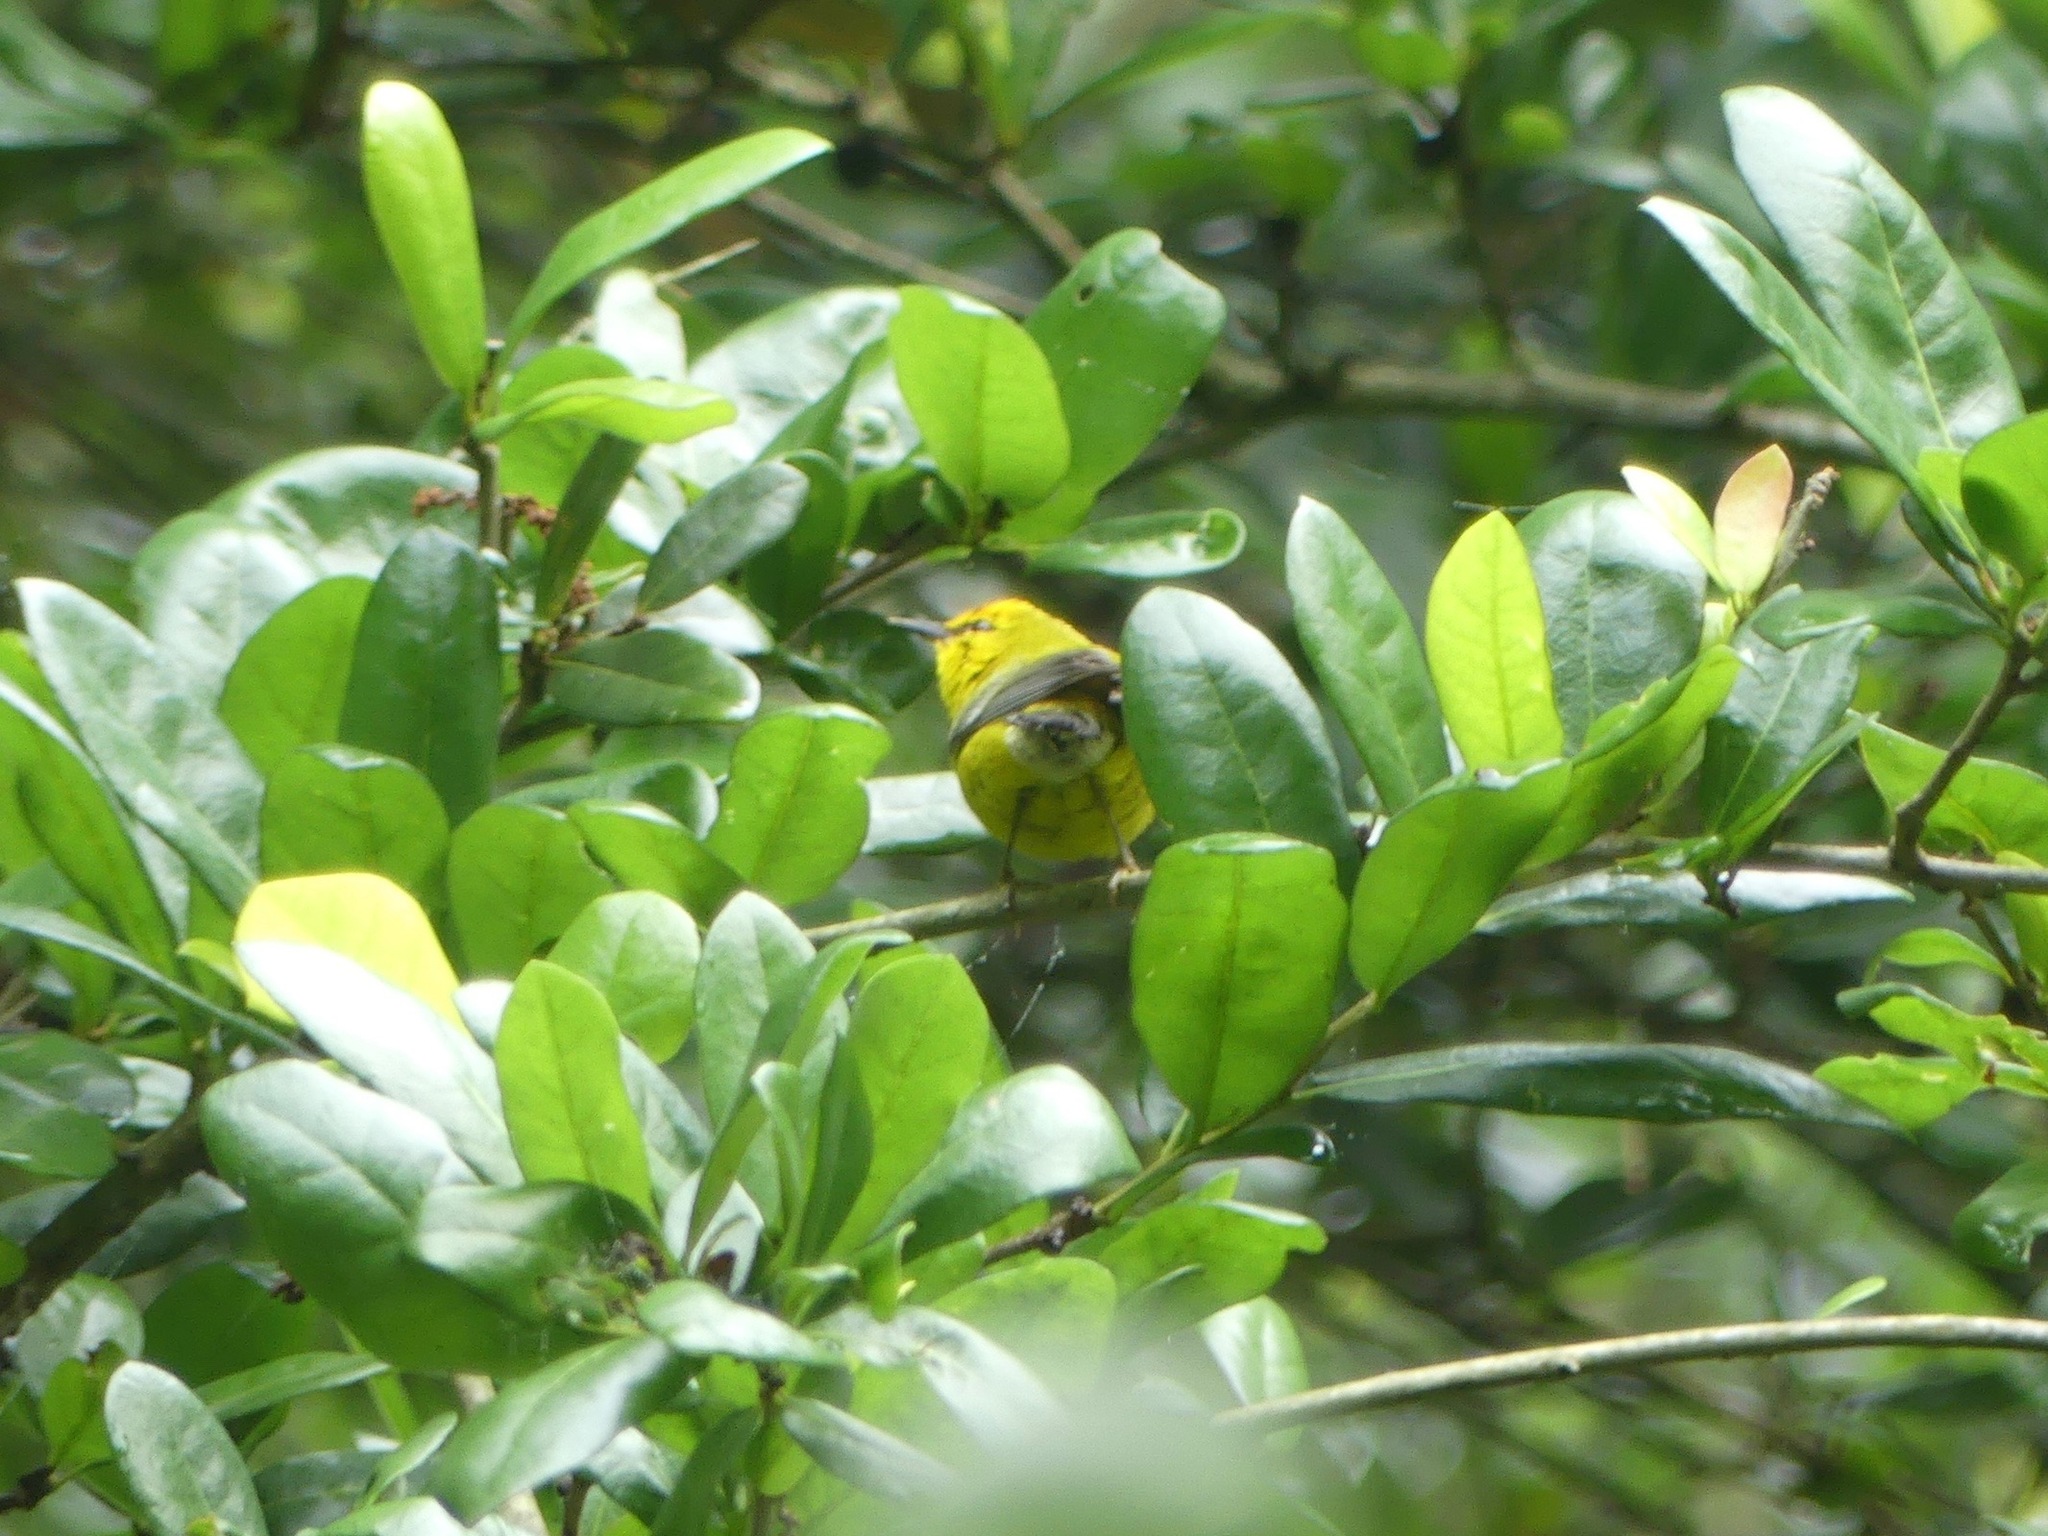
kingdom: Animalia
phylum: Chordata
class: Aves
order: Passeriformes
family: Parulidae
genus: Vermivora
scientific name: Vermivora cyanoptera
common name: Blue-winged warbler
